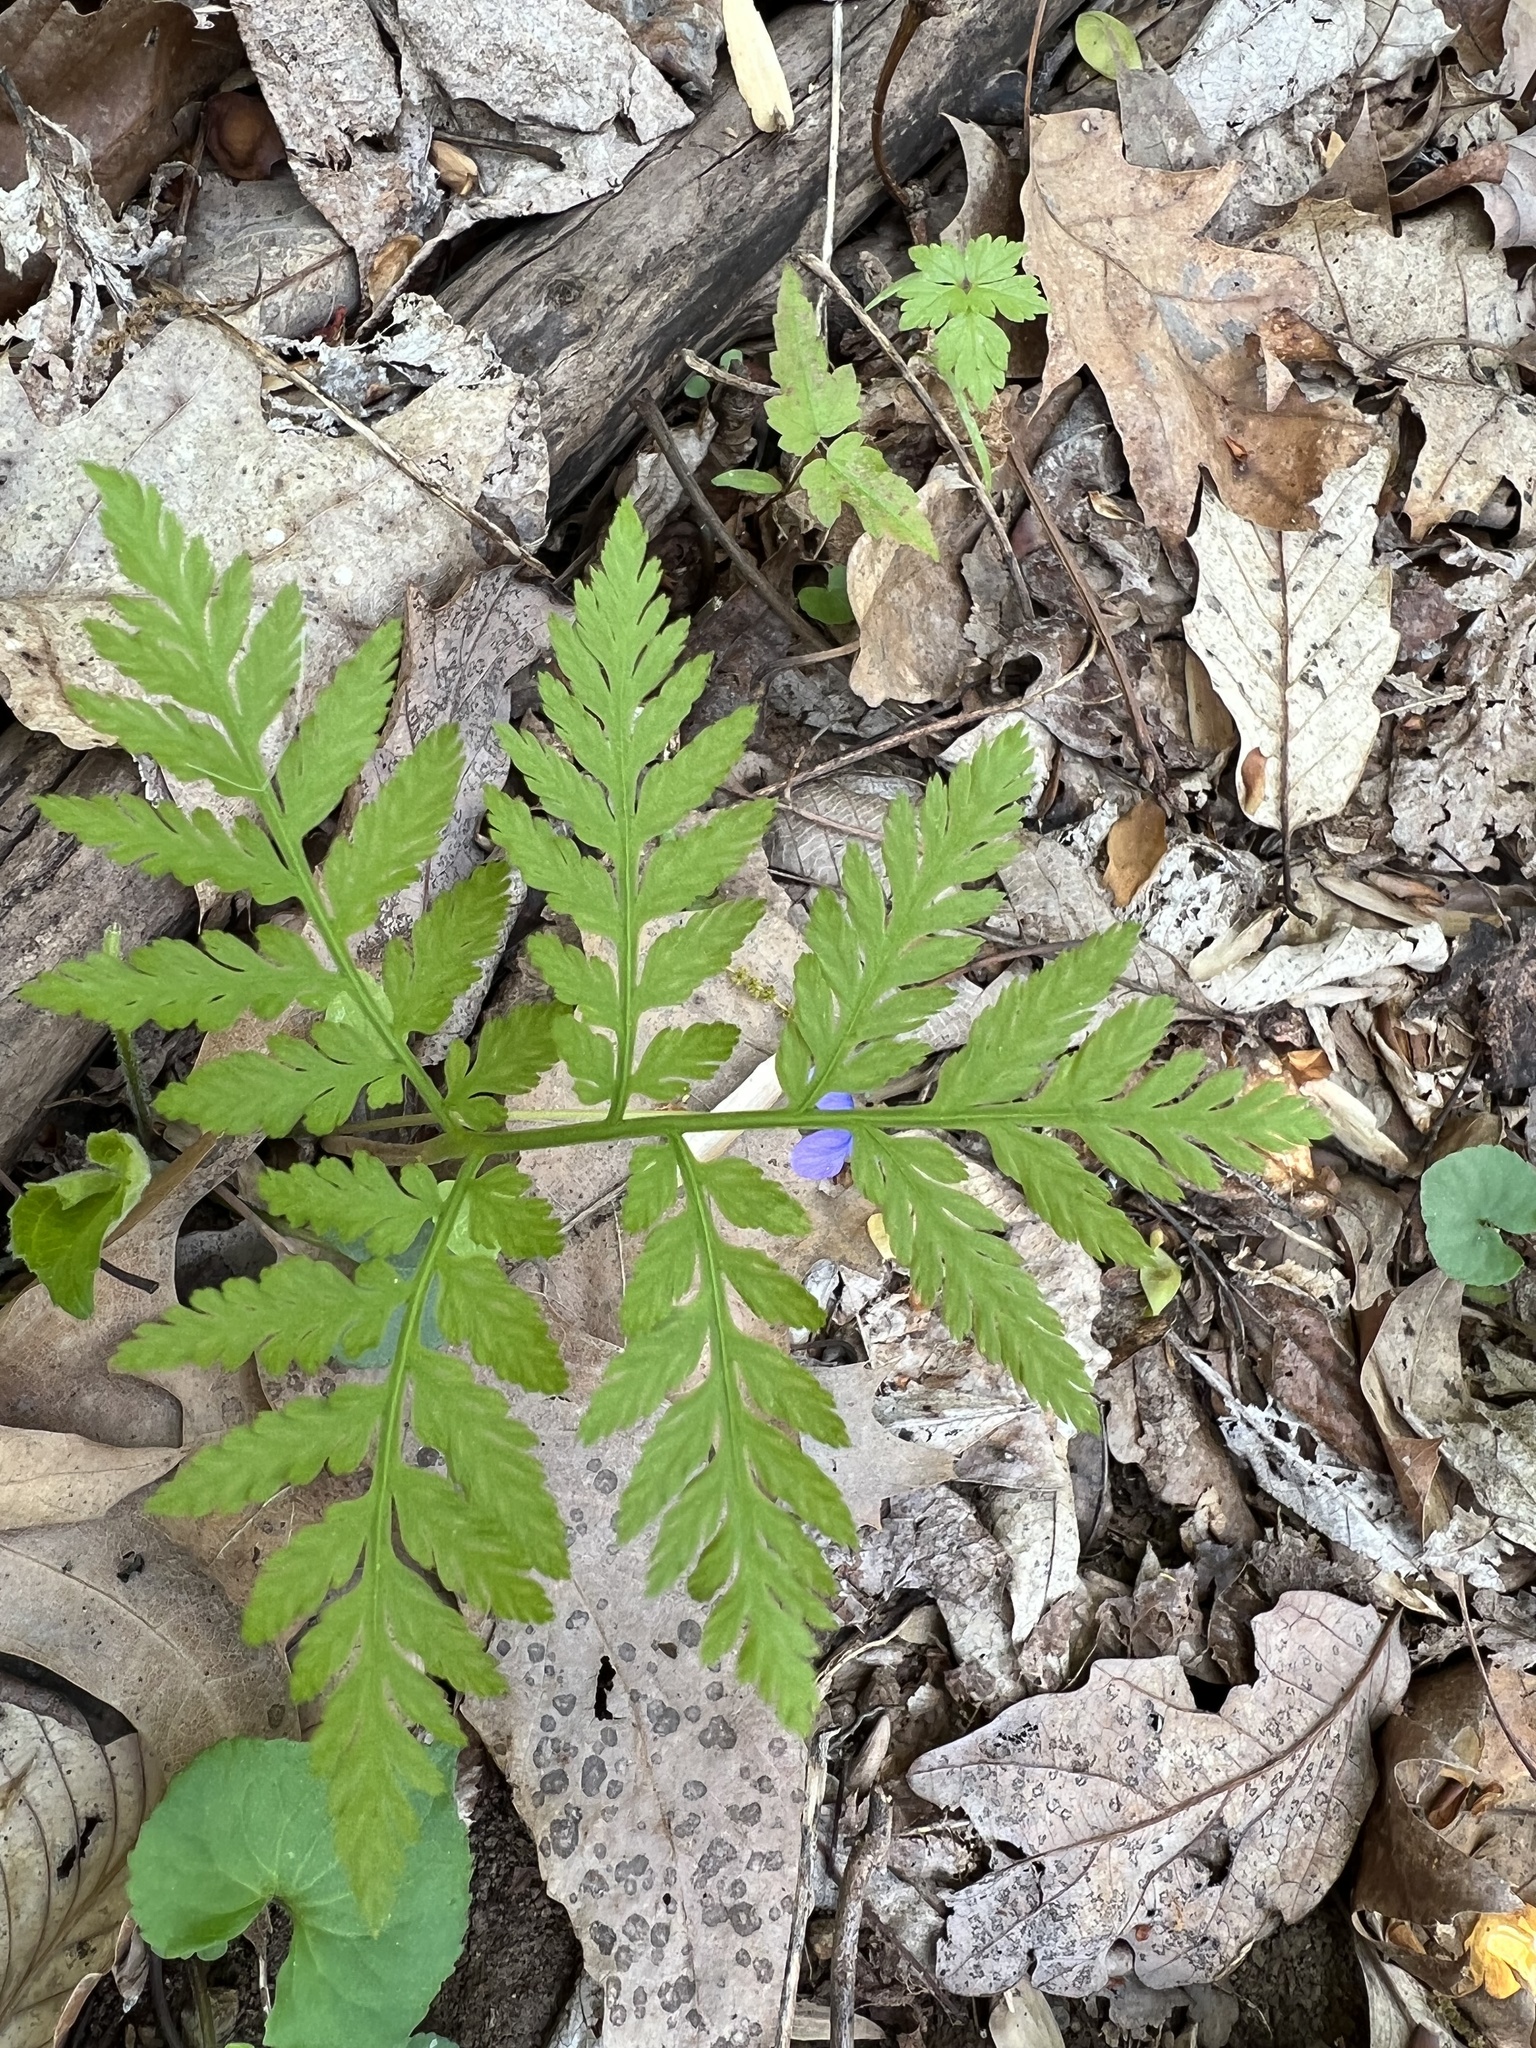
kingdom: Plantae
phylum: Tracheophyta
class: Polypodiopsida
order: Ophioglossales
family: Ophioglossaceae
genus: Botrypus
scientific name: Botrypus virginianus
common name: Common grapefern
